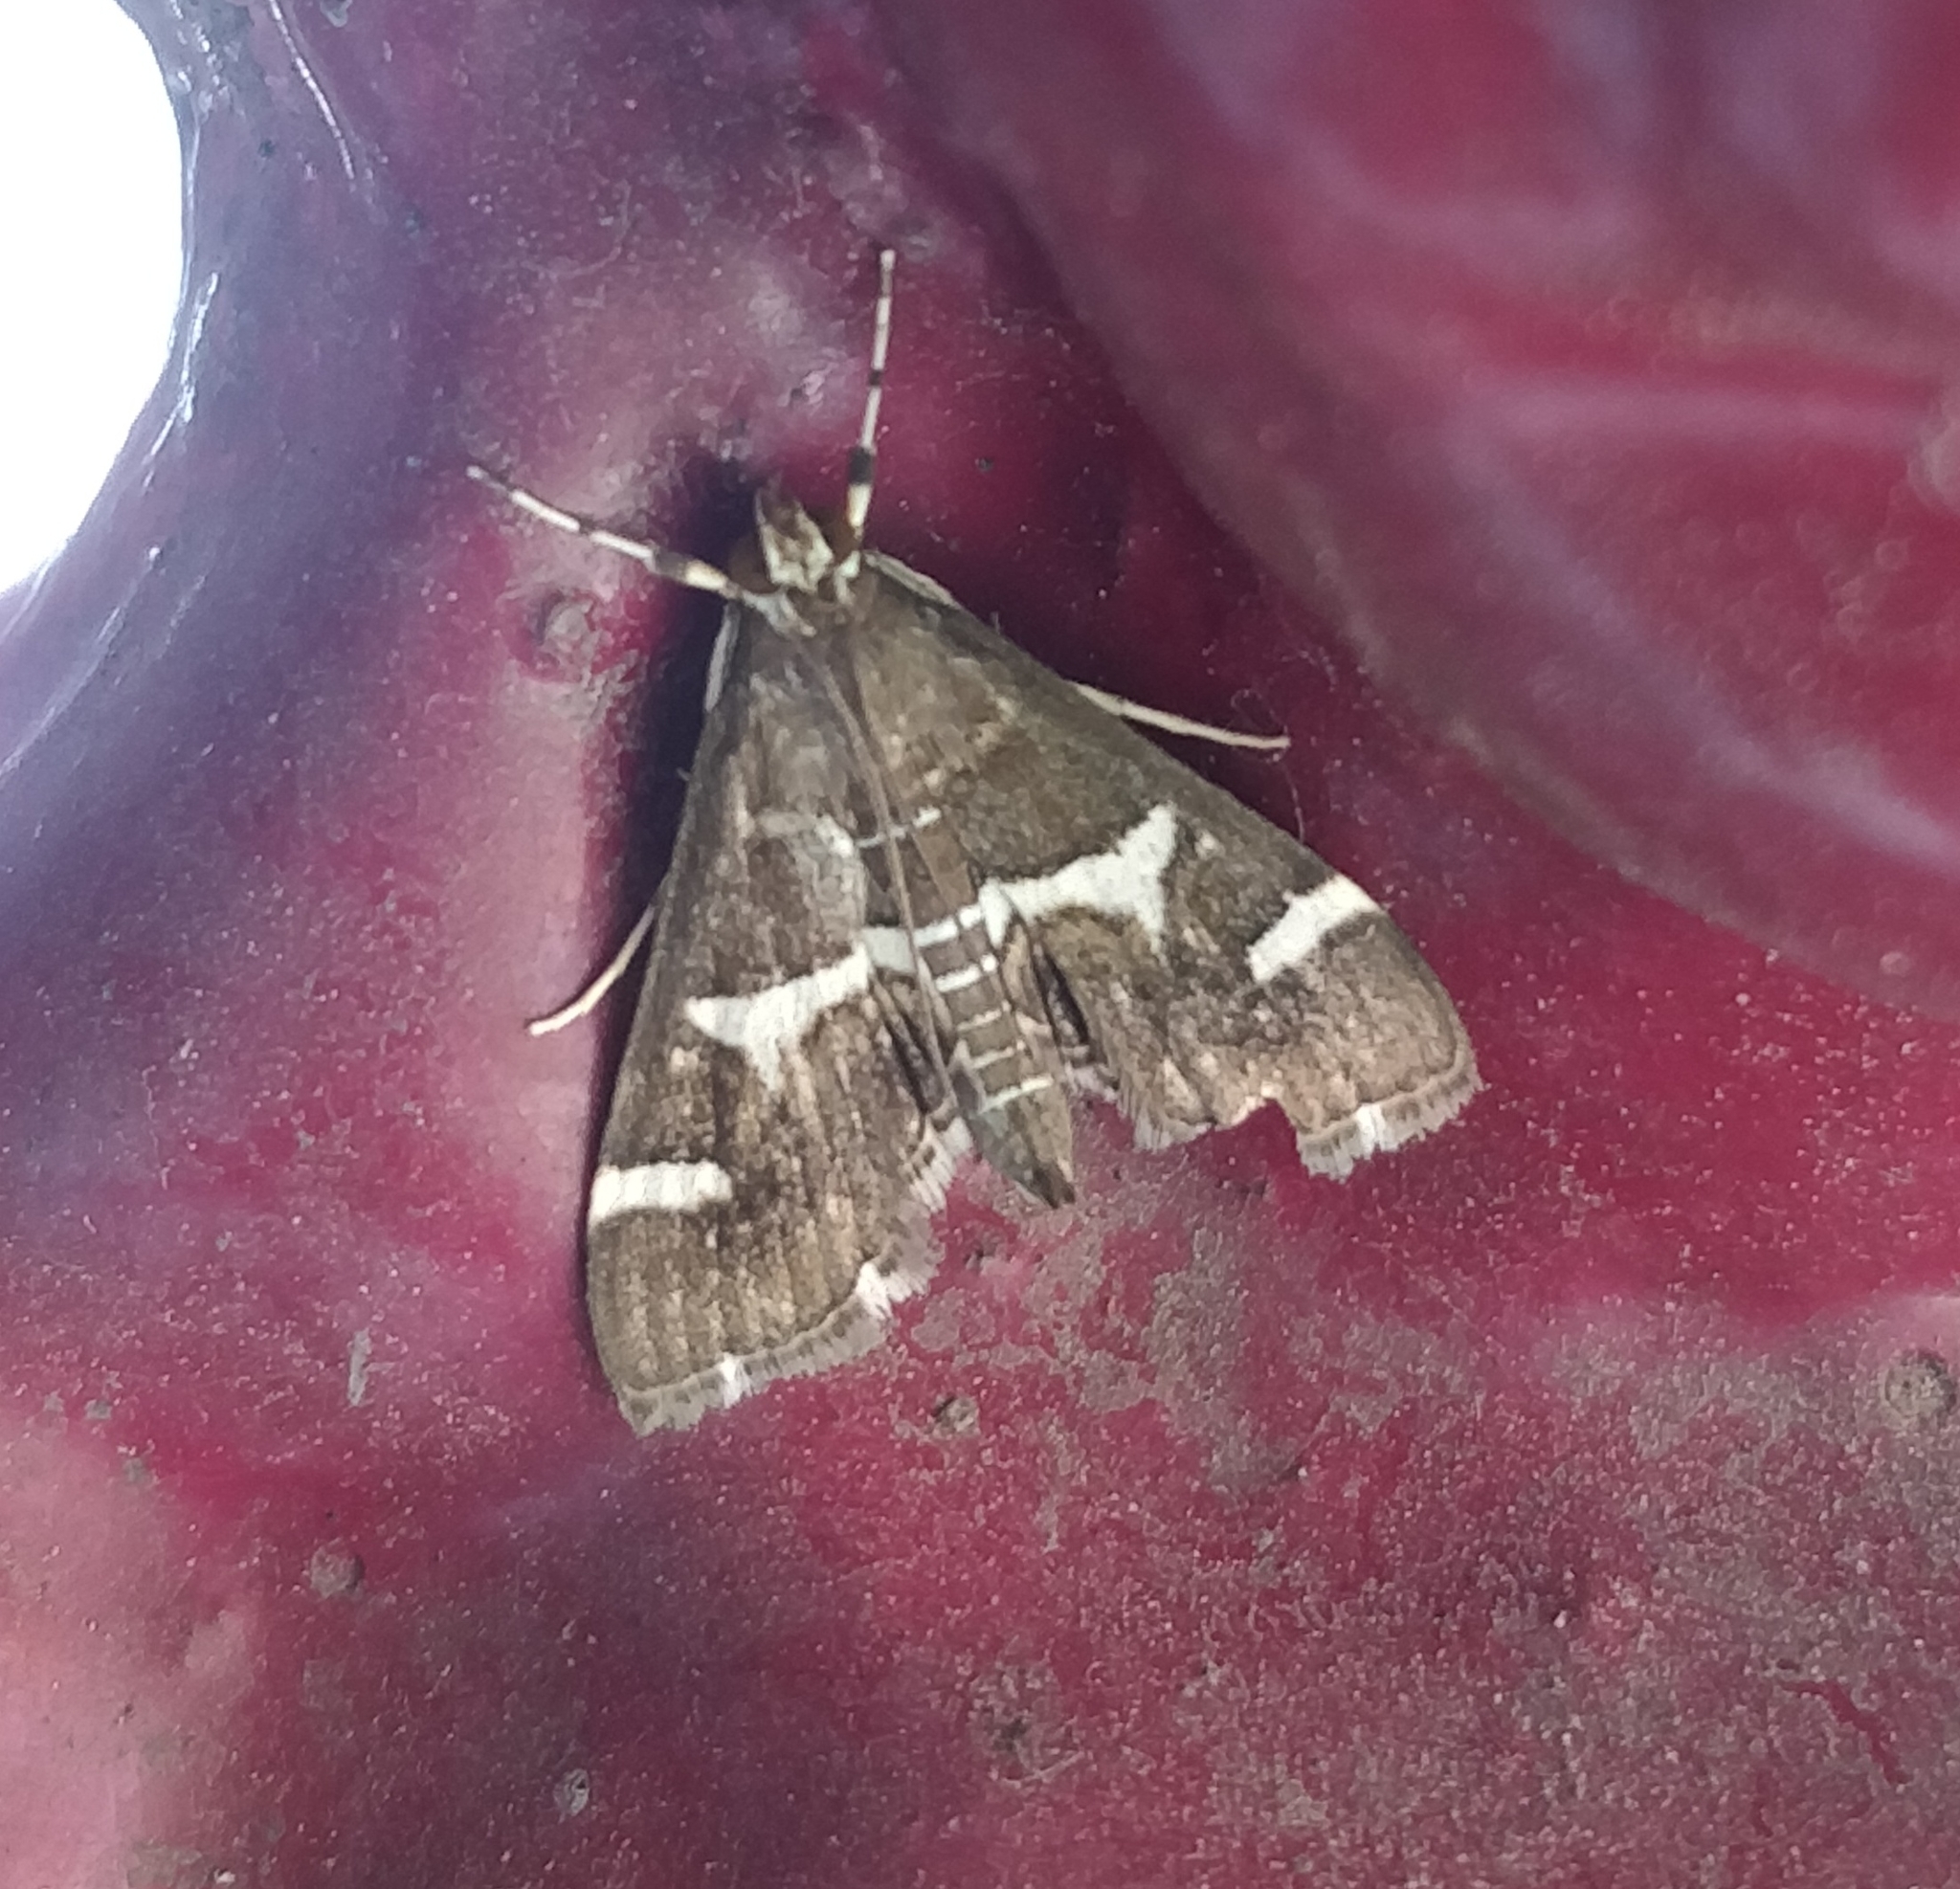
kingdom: Animalia
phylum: Arthropoda
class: Insecta
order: Lepidoptera
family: Crambidae
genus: Spoladea
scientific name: Spoladea recurvalis
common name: Beet webworm moth
